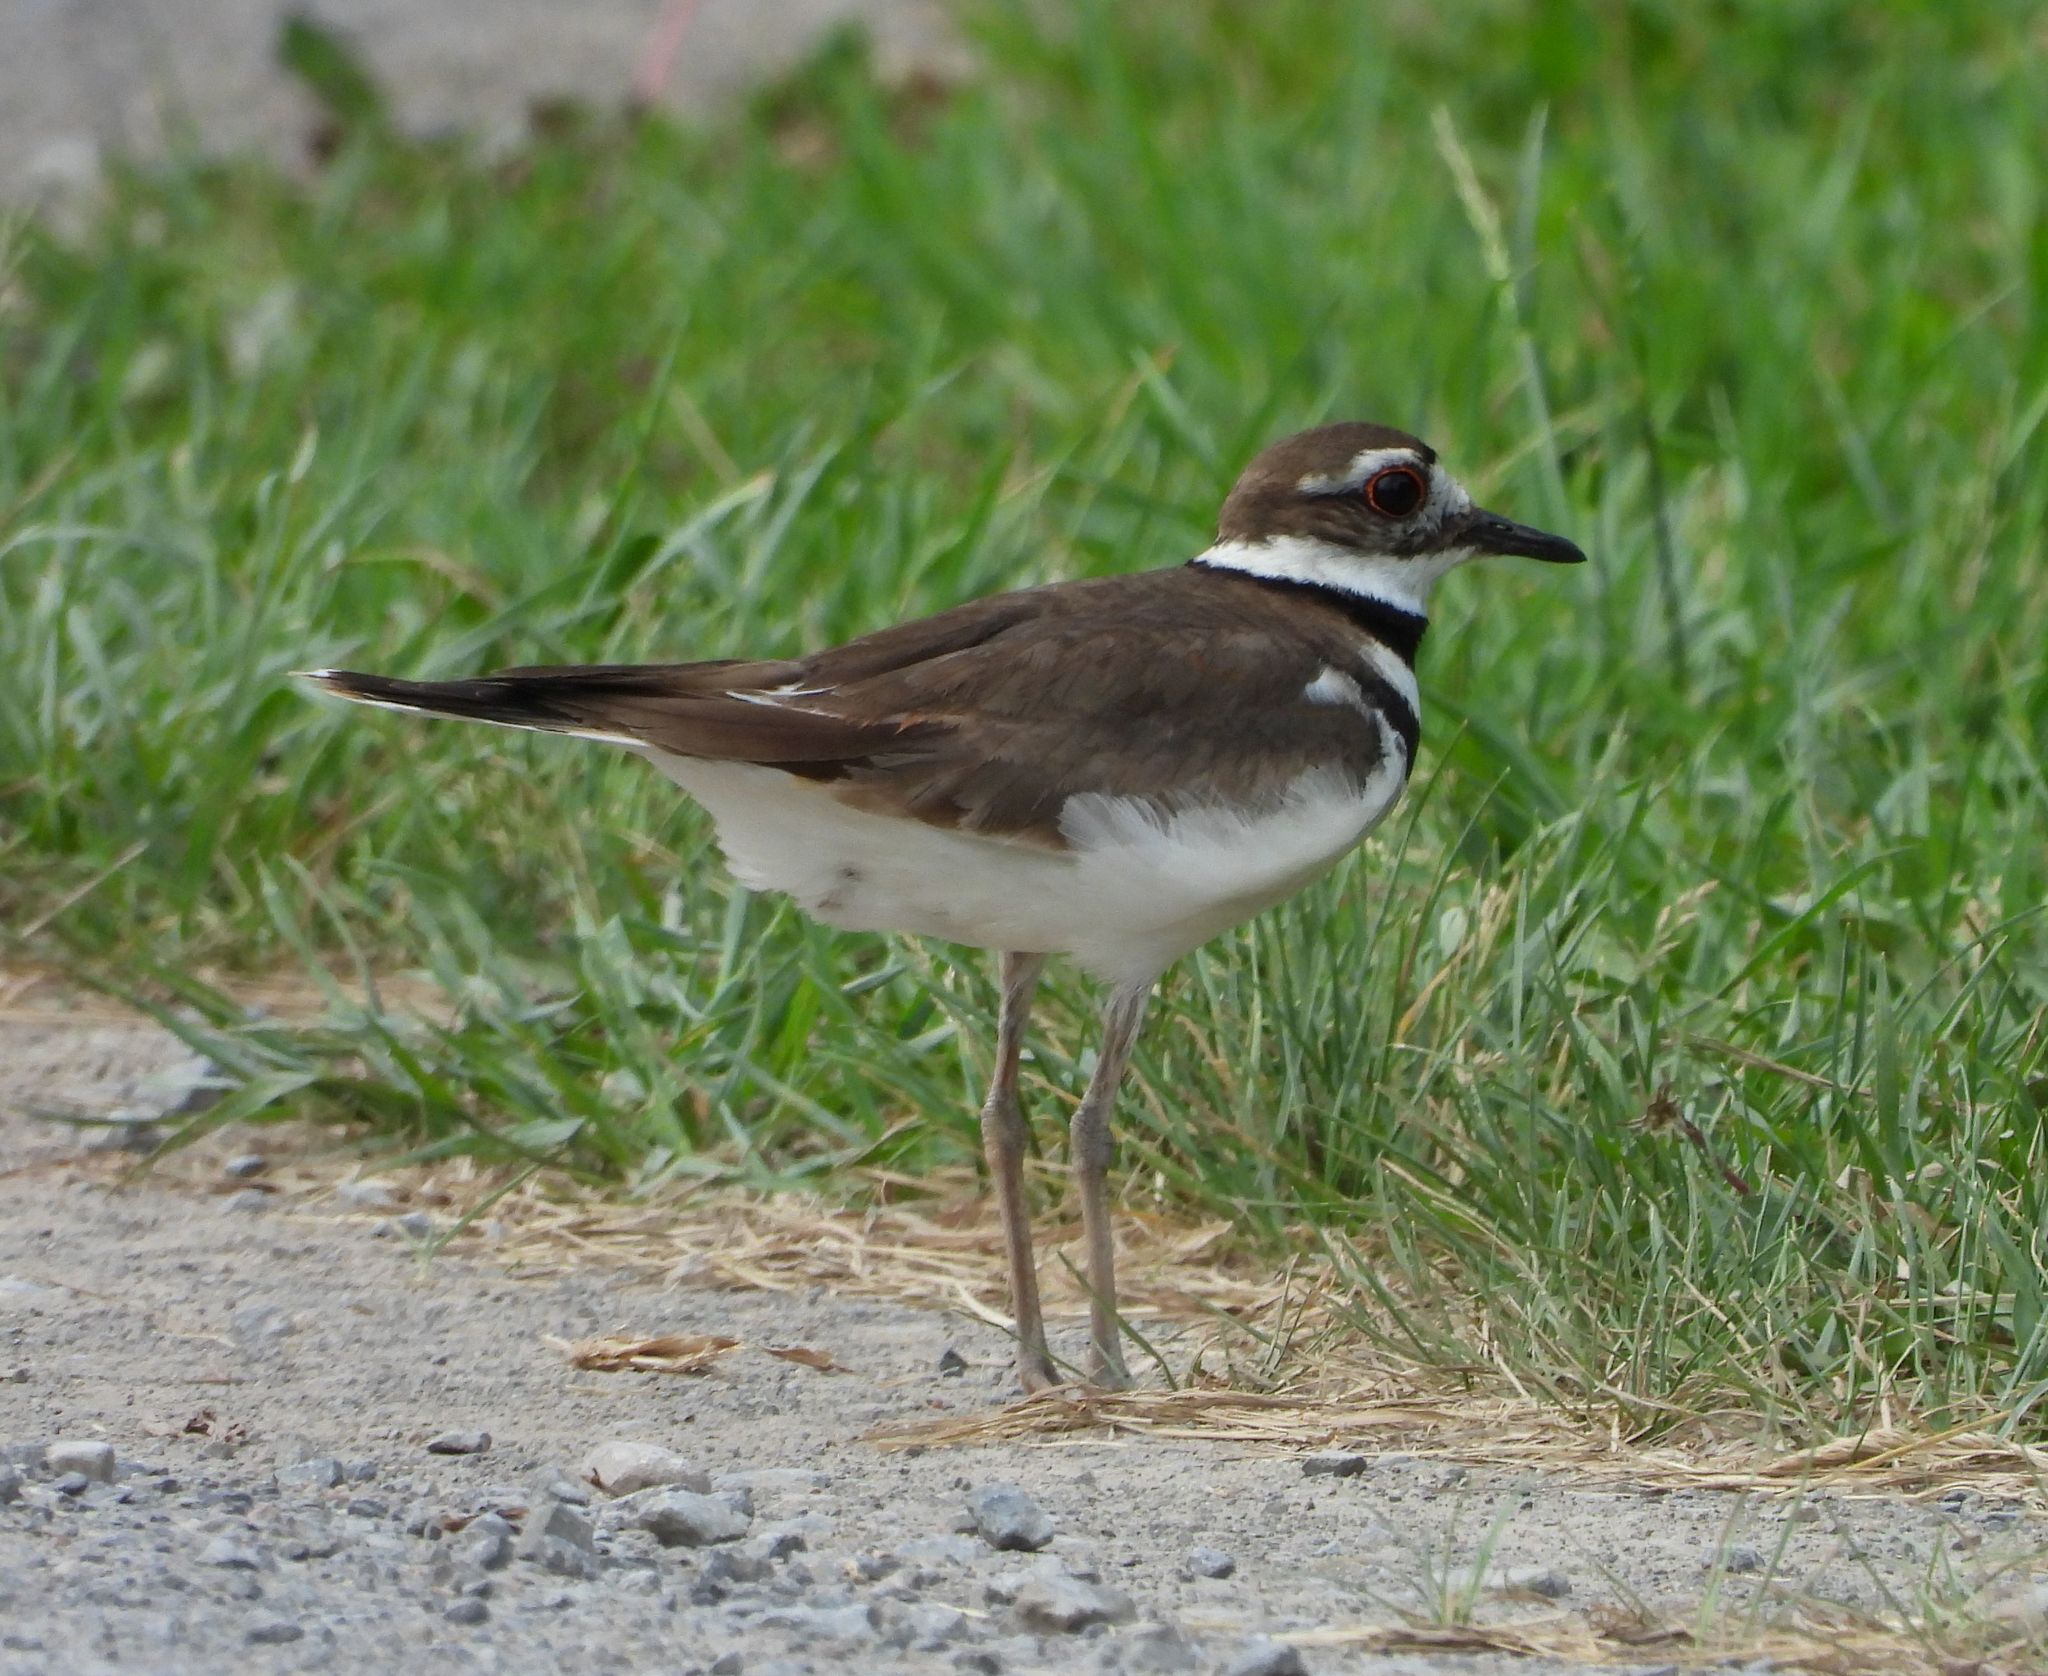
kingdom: Animalia
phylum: Chordata
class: Aves
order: Charadriiformes
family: Charadriidae
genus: Charadrius
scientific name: Charadrius vociferus
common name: Killdeer
